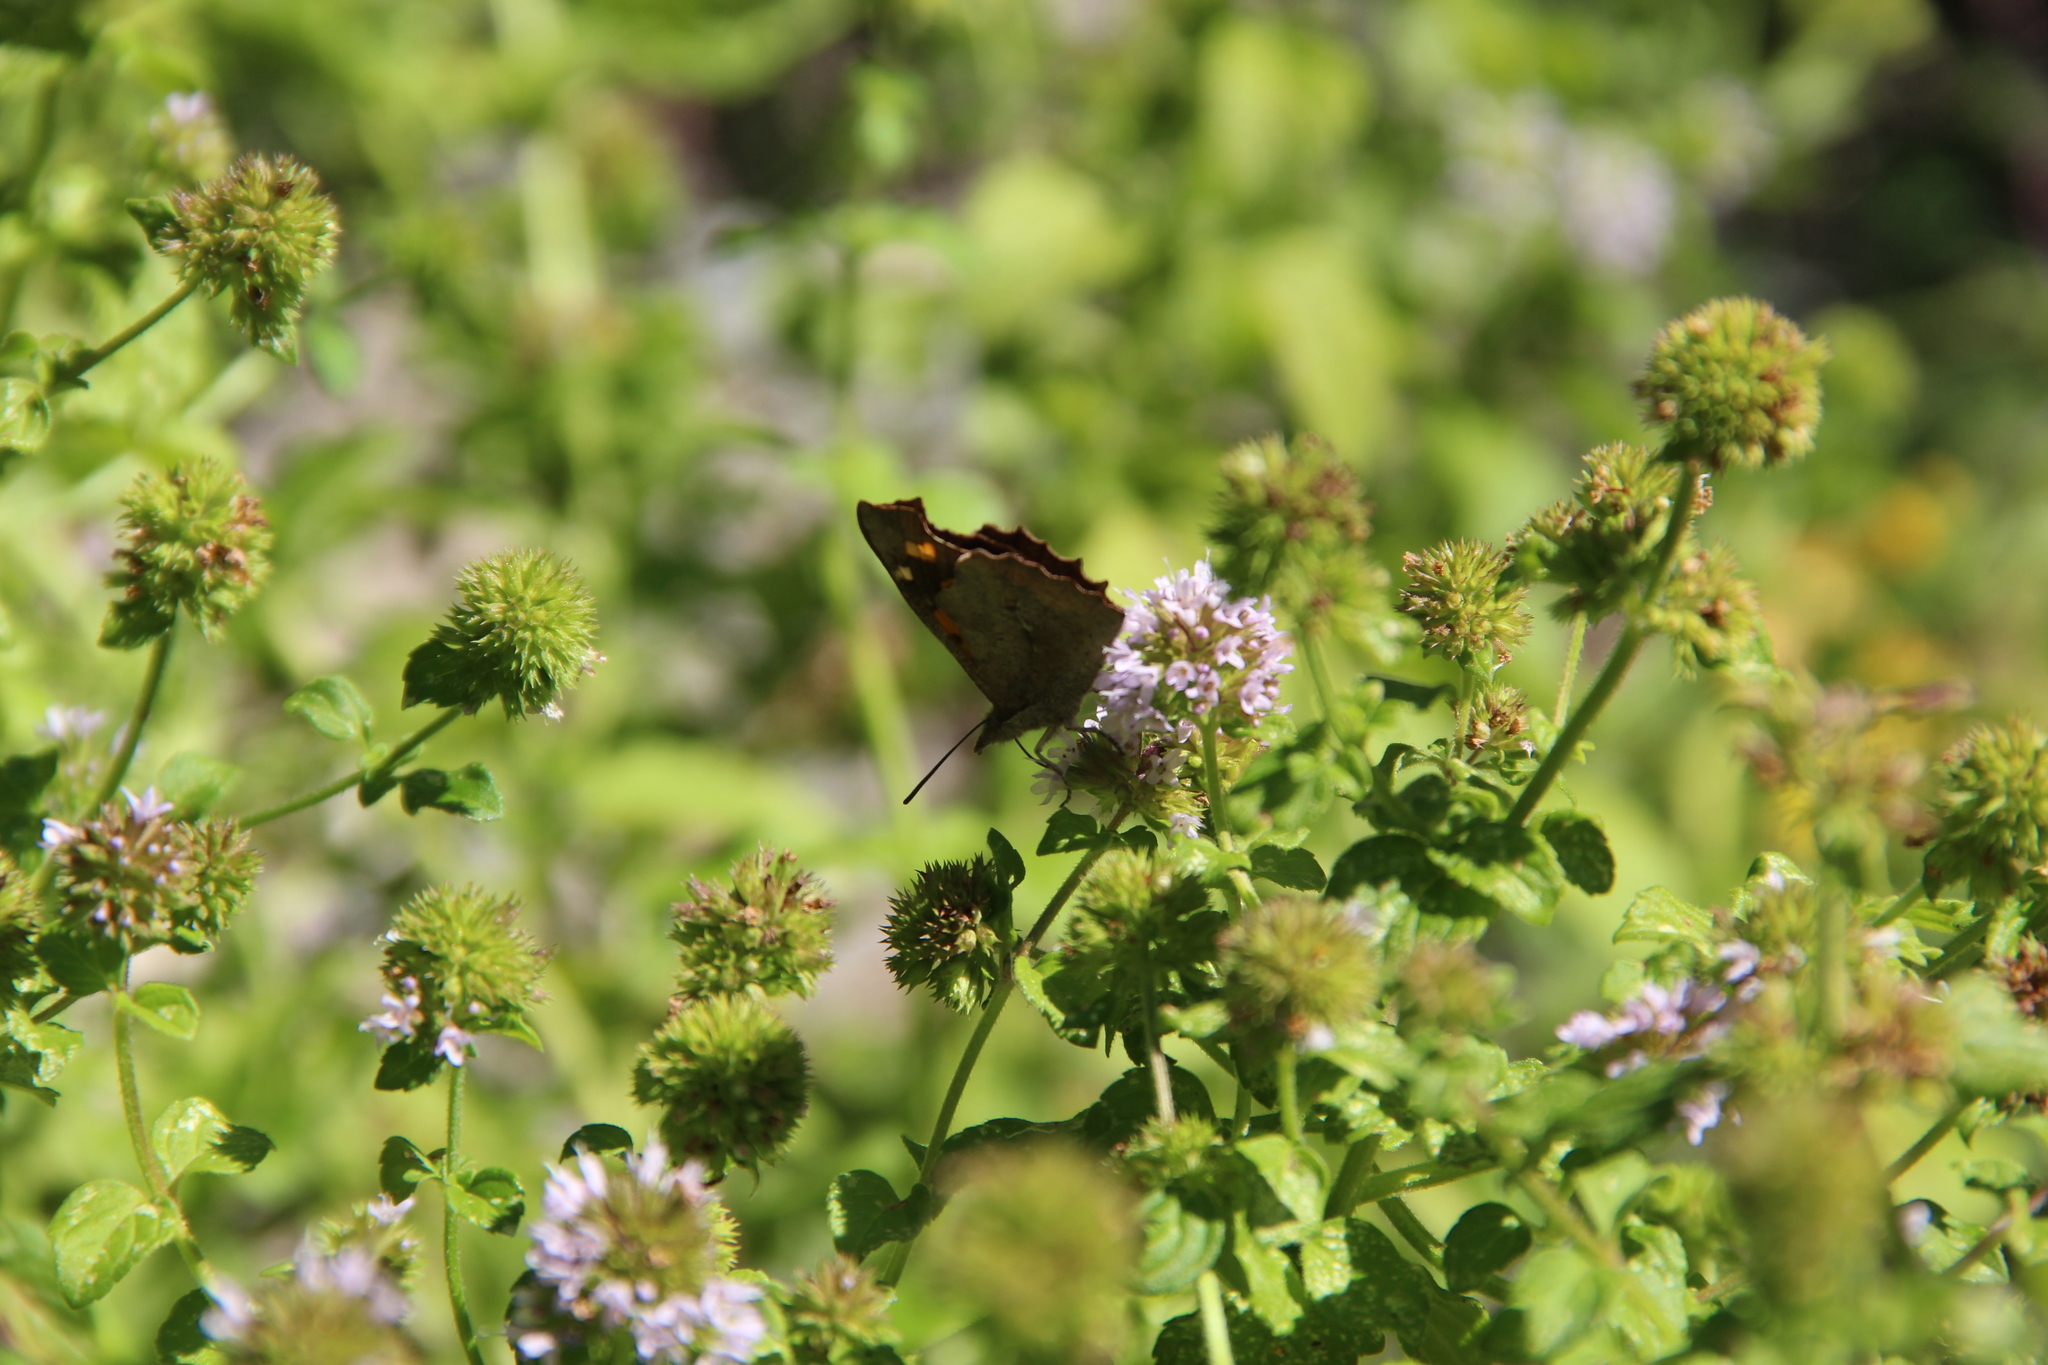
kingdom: Animalia
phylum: Arthropoda
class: Insecta
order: Lepidoptera
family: Nymphalidae
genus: Libythea
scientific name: Libythea celtis
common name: Nettle-tree butterfly
